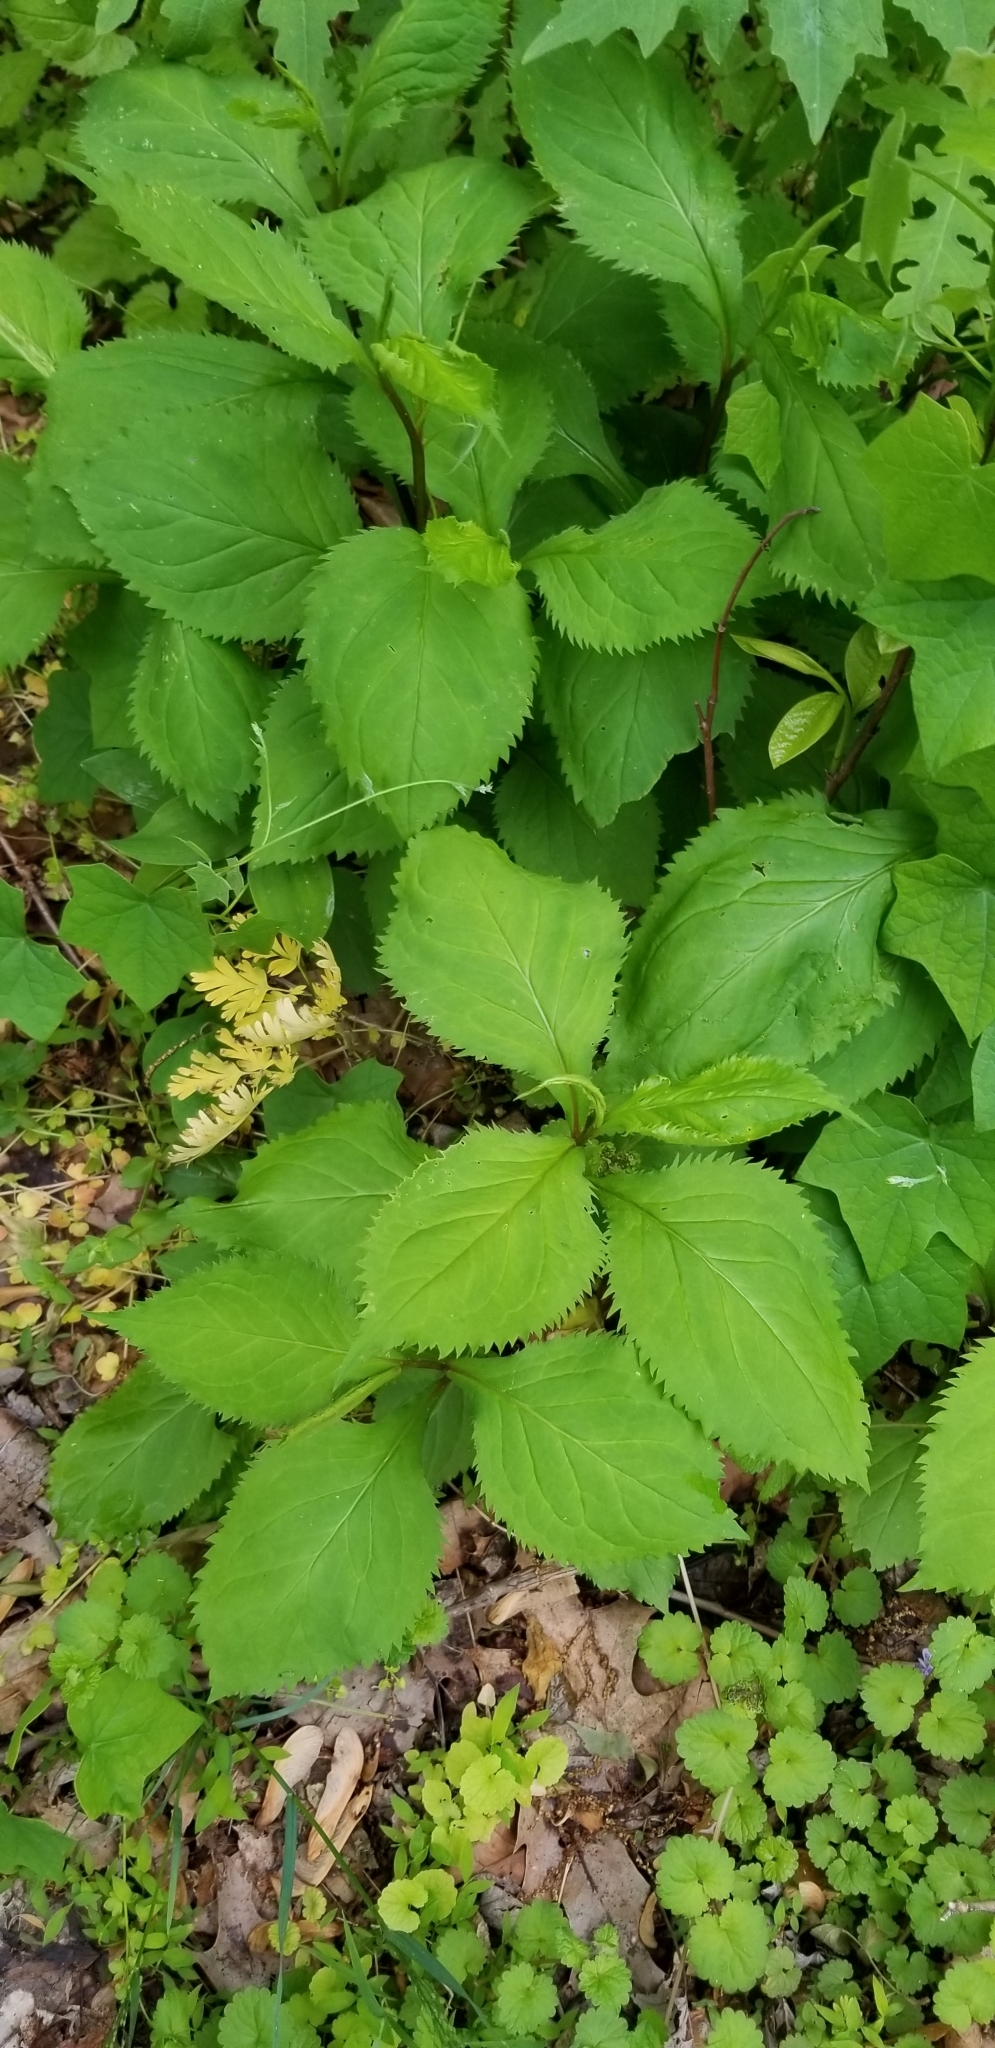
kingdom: Plantae
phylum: Tracheophyta
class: Magnoliopsida
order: Asterales
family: Asteraceae
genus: Solidago
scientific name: Solidago flexicaulis
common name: Zig-zag goldenrod
